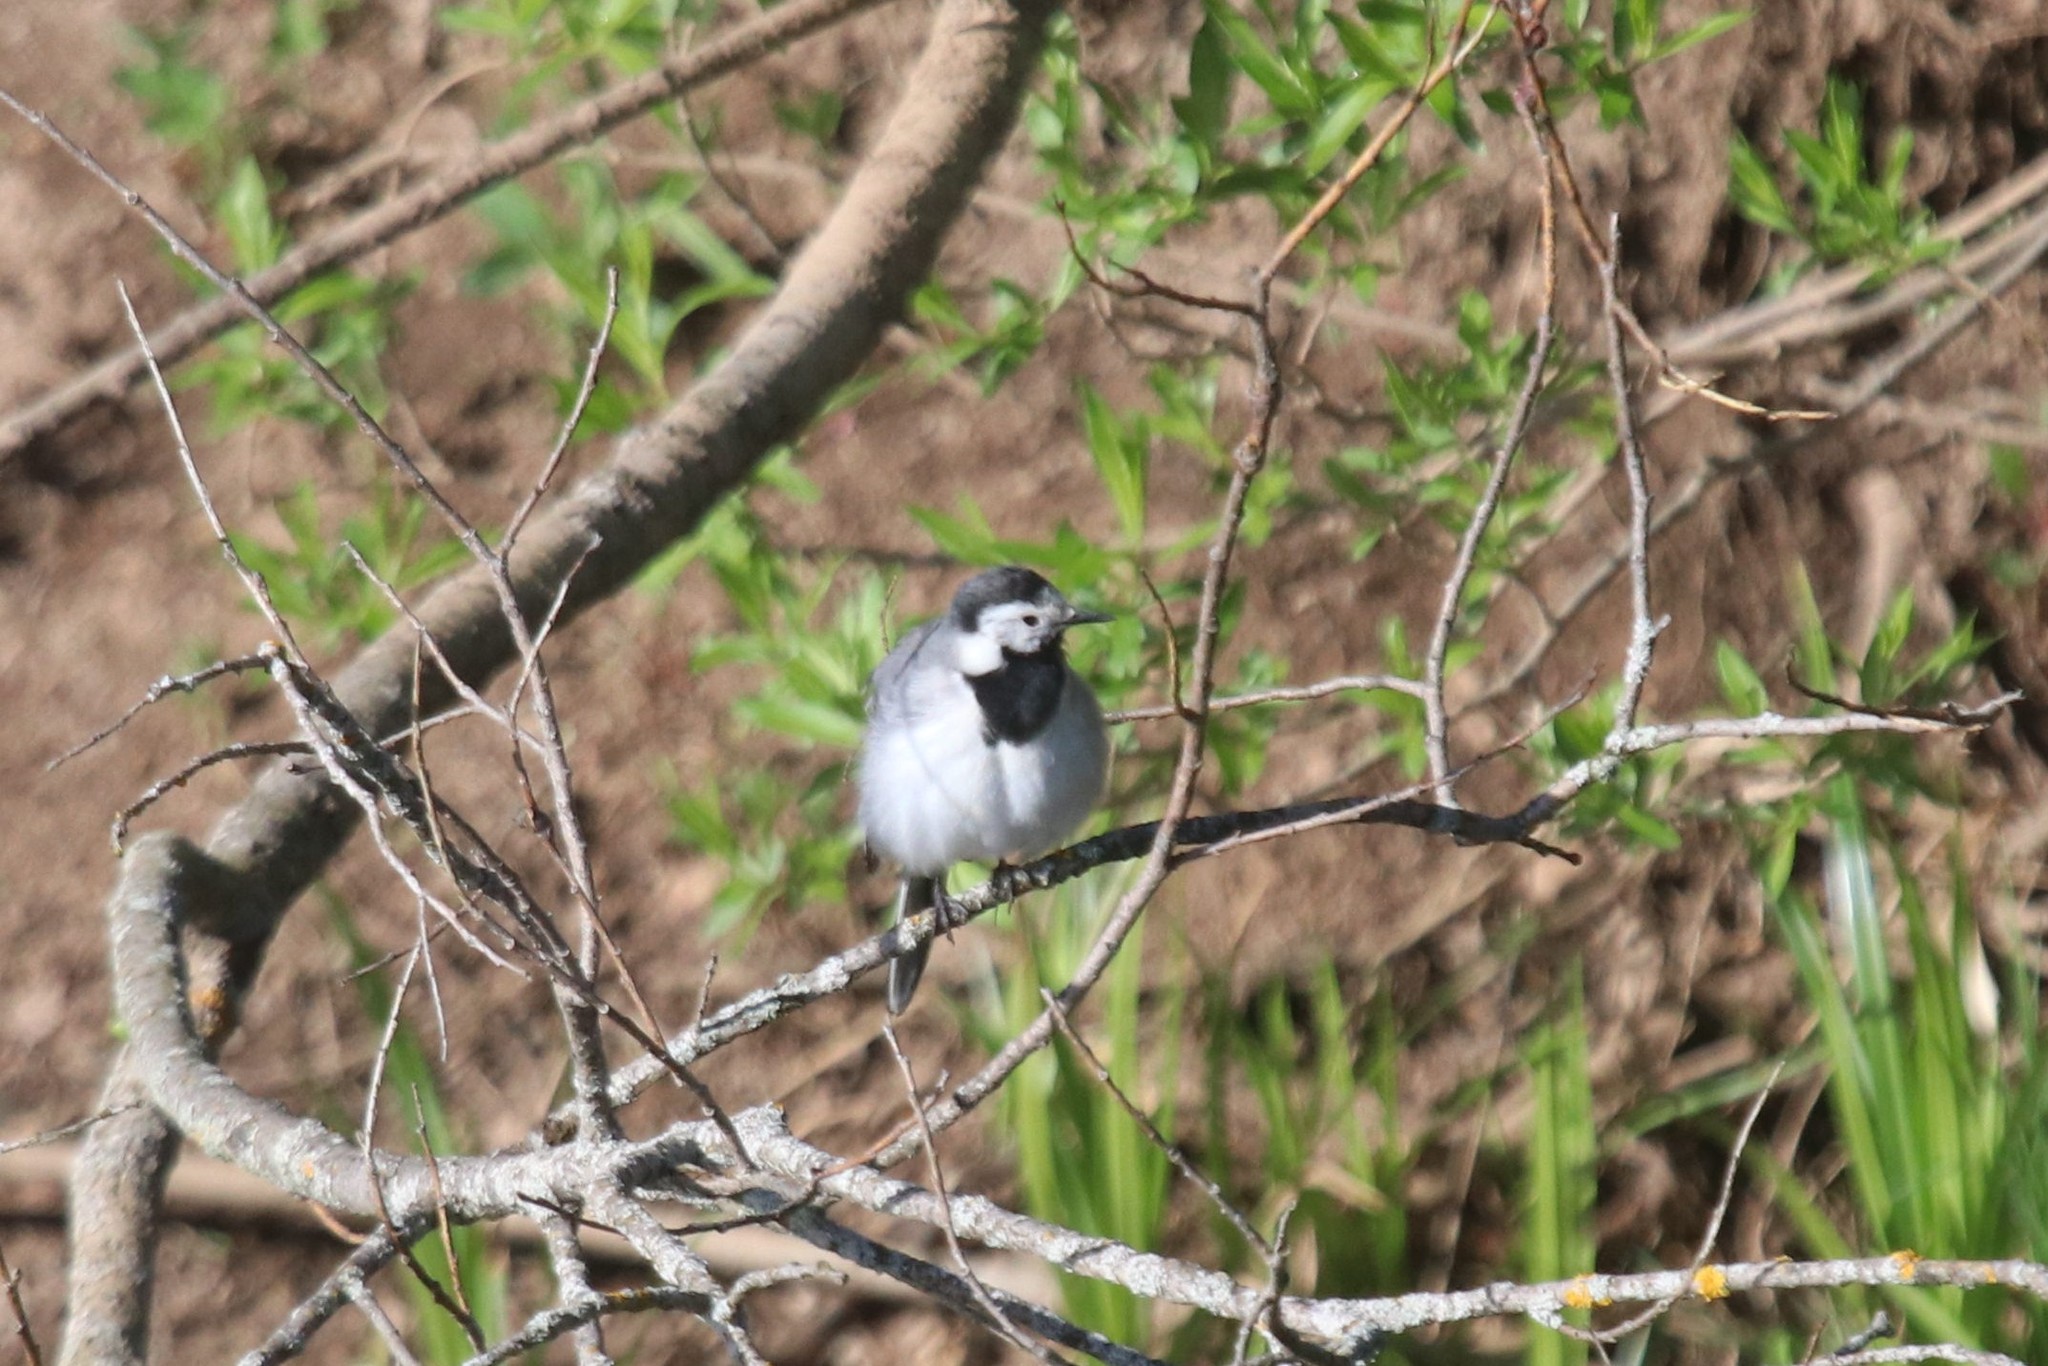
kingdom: Animalia
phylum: Chordata
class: Aves
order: Passeriformes
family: Motacillidae
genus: Motacilla
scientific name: Motacilla alba
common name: White wagtail
